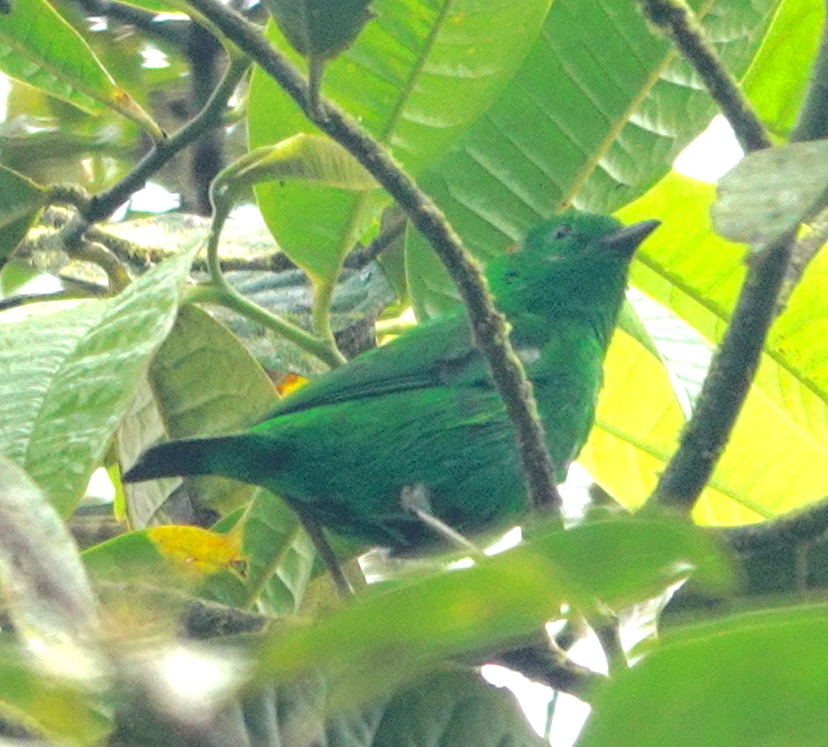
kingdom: Animalia
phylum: Chordata
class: Aves
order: Passeriformes
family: Thraupidae
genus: Chlorochrysa
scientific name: Chlorochrysa phoenicotis
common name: Glistening-green tanager
